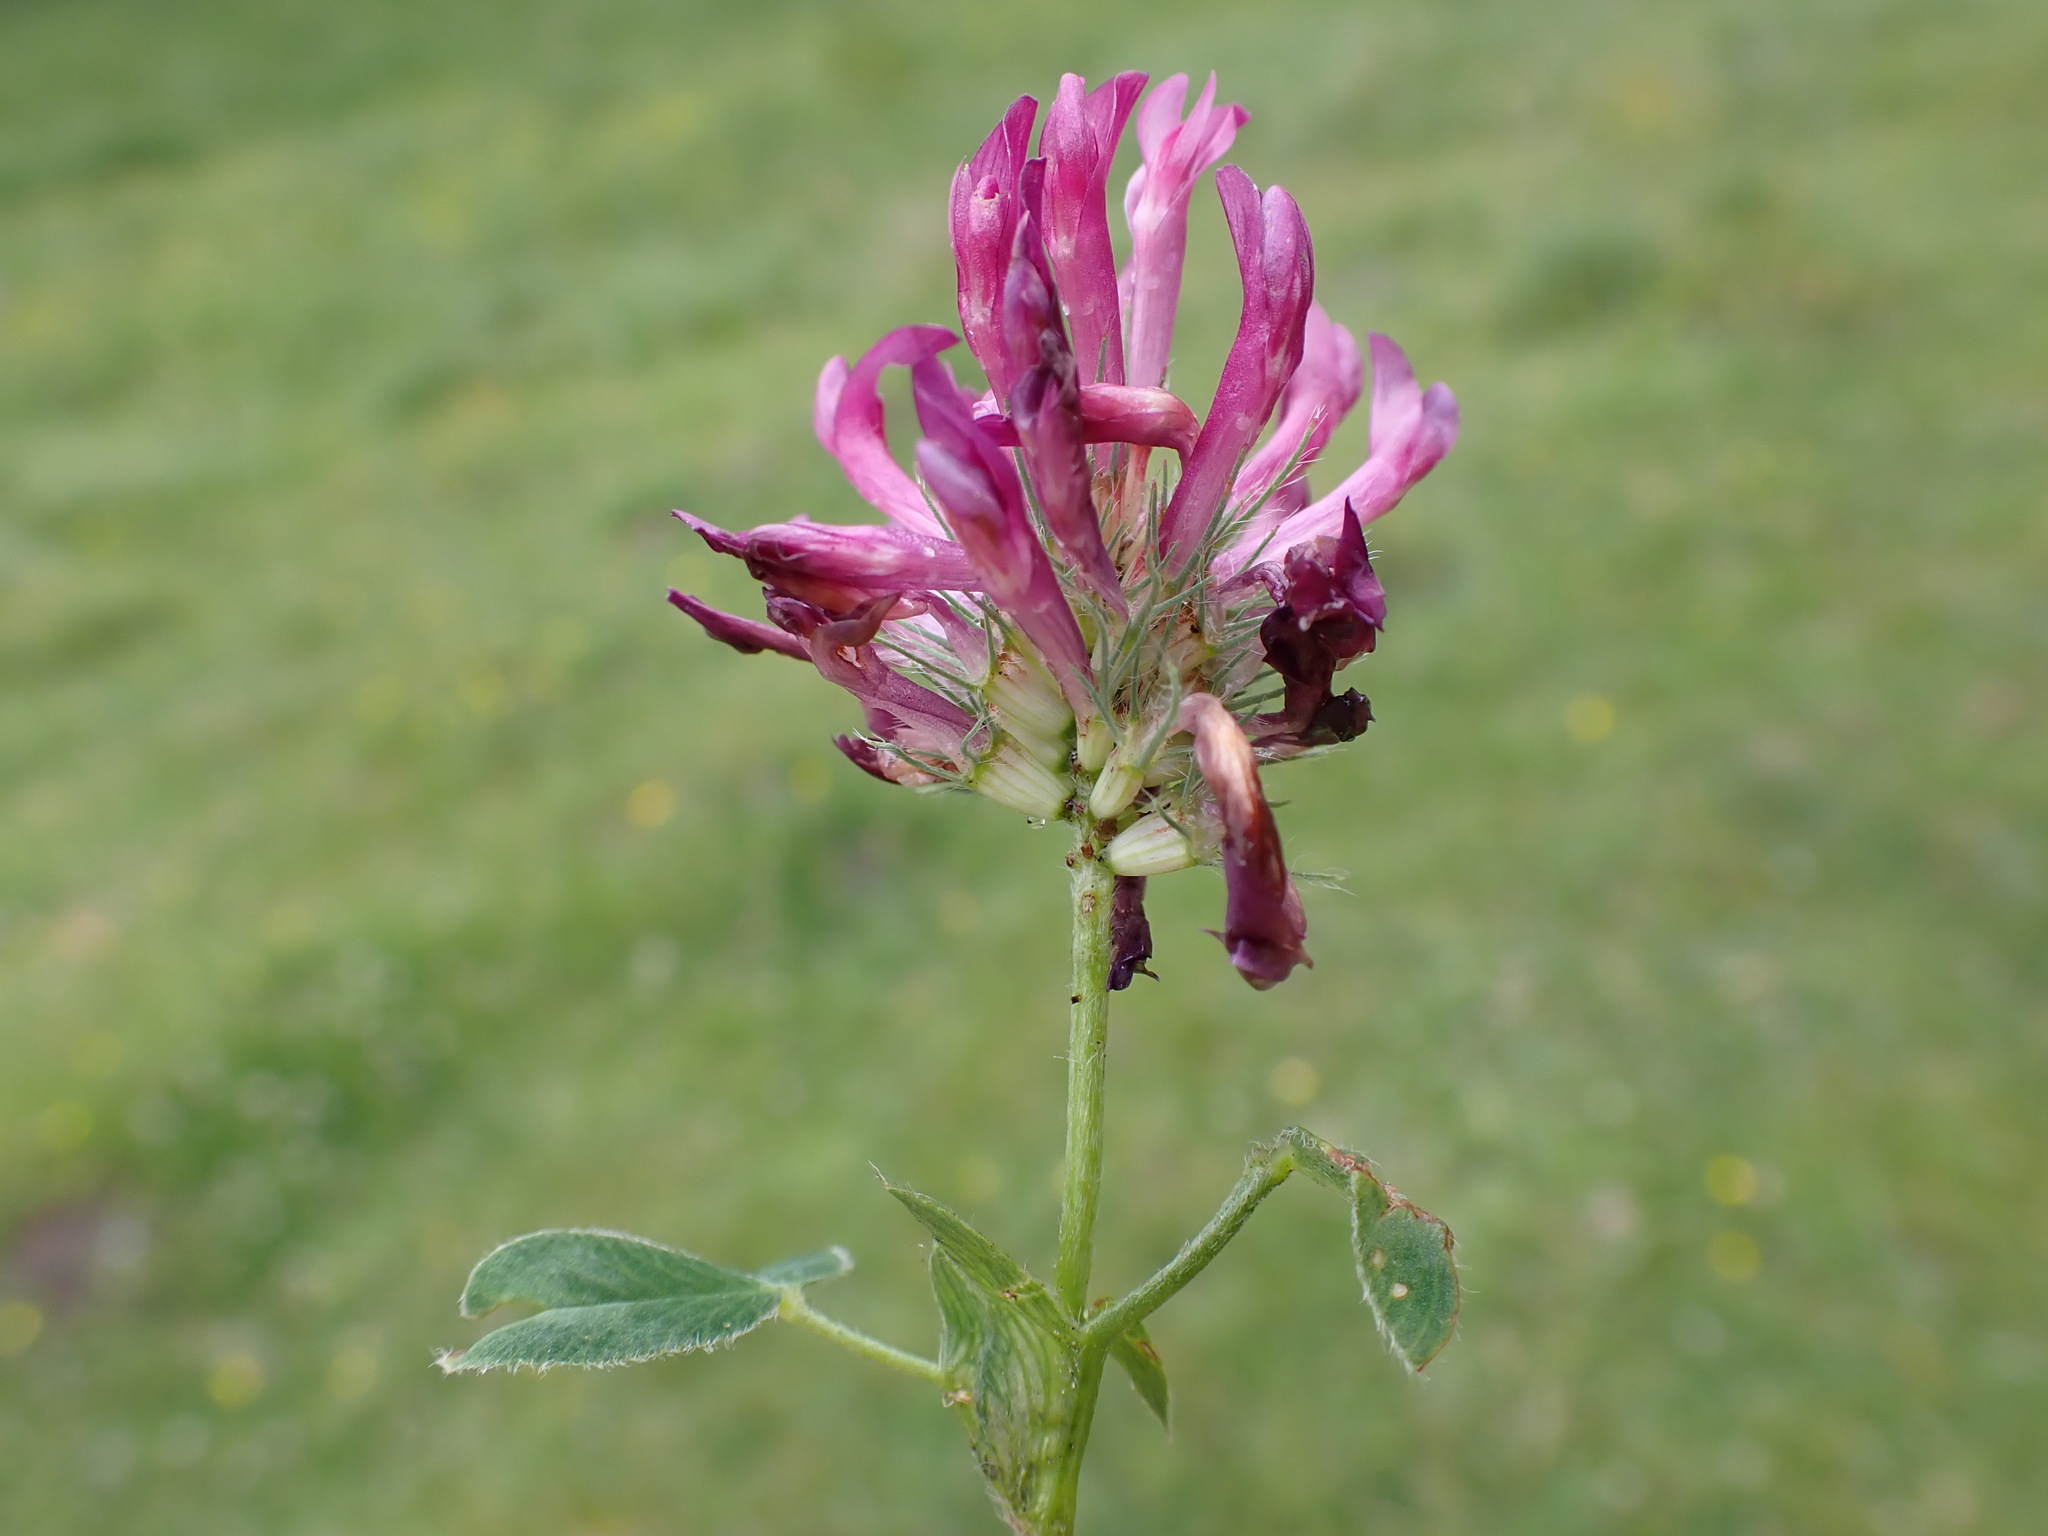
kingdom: Plantae
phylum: Tracheophyta
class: Magnoliopsida
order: Fabales
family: Fabaceae
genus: Trifolium
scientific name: Trifolium medium
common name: Zigzag clover
